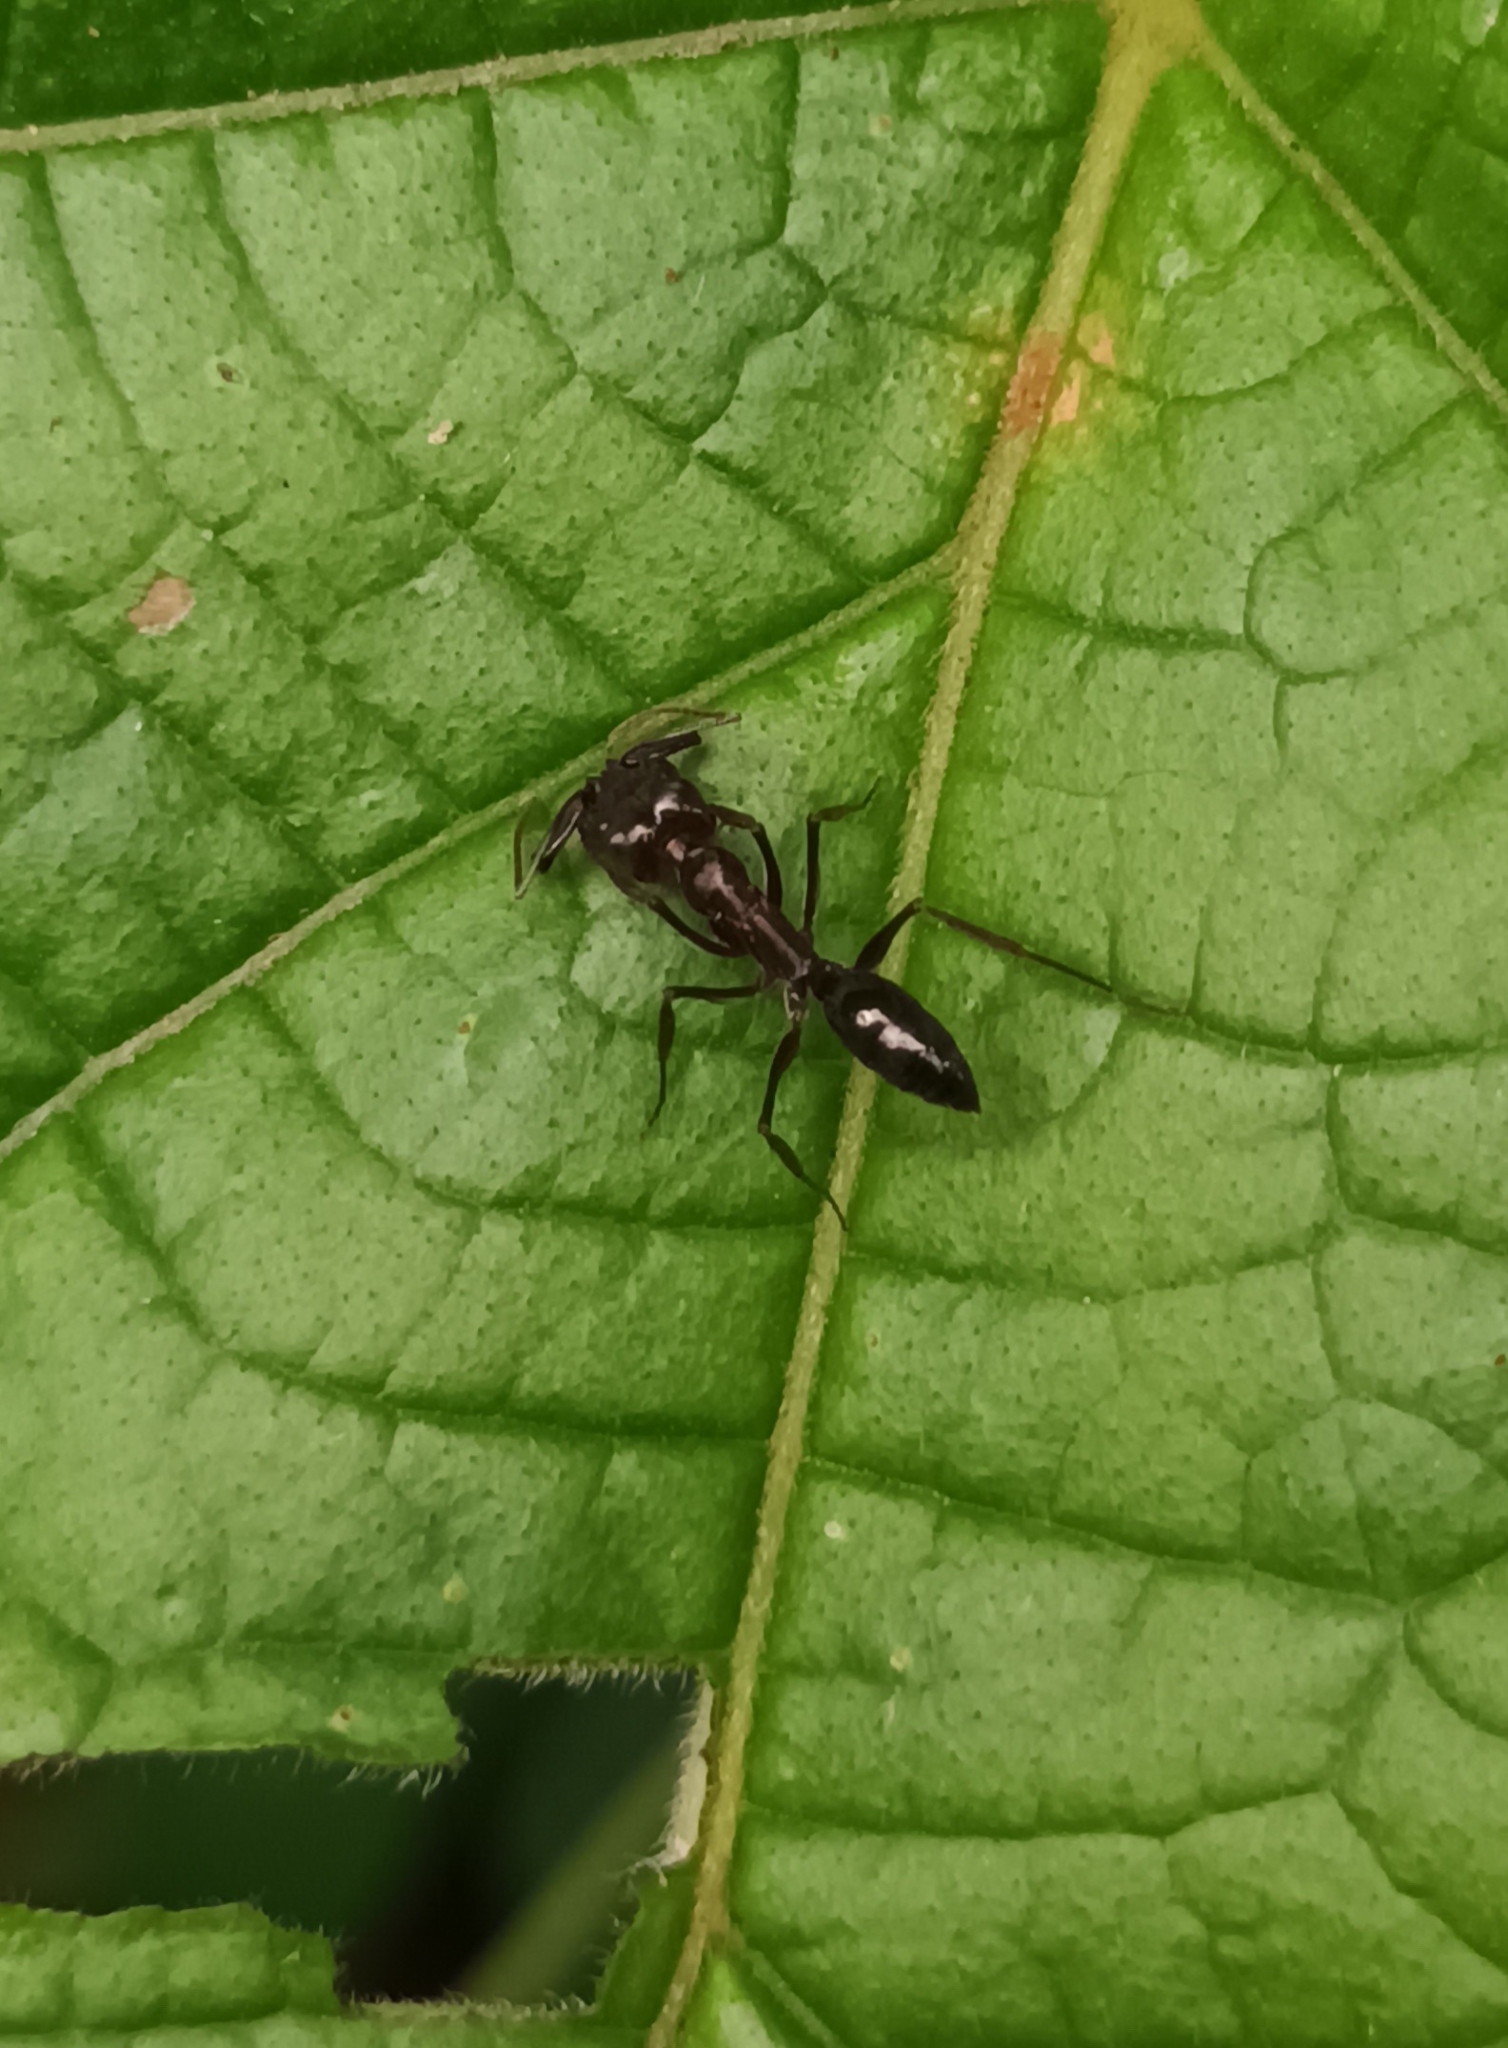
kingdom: Animalia
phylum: Arthropoda
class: Insecta
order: Hymenoptera
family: Formicidae
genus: Odontomachus
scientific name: Odontomachus simillimus
